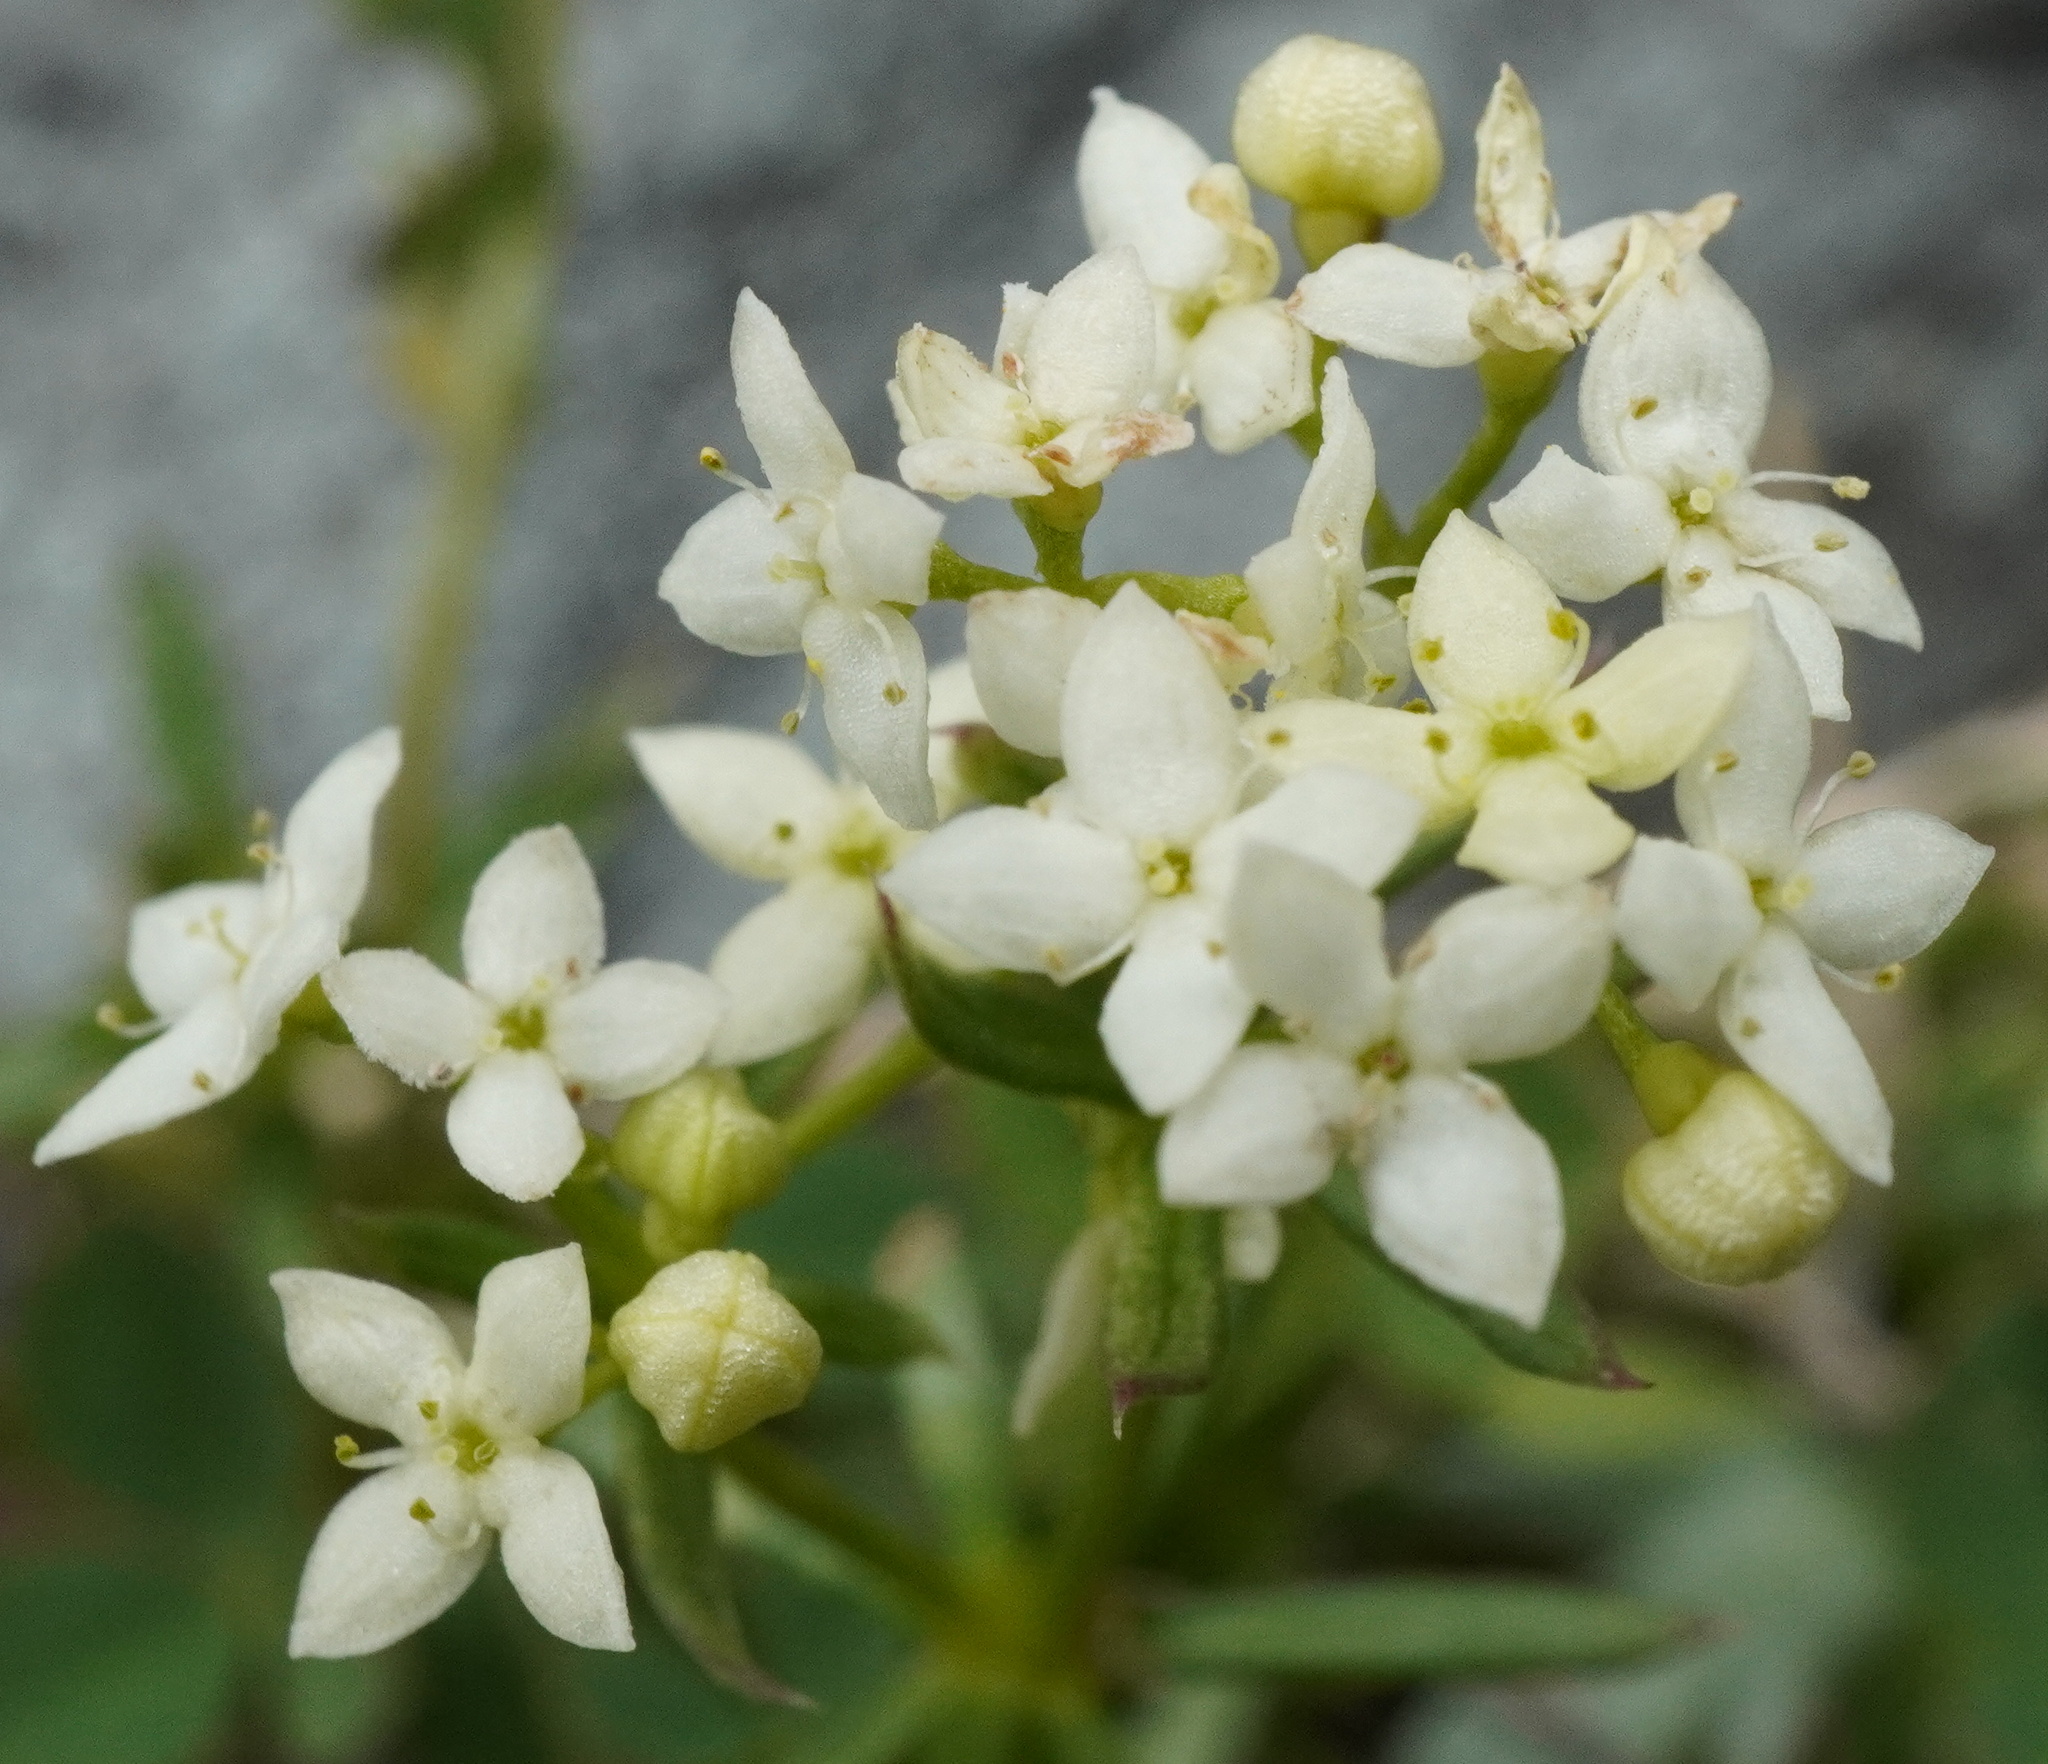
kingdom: Plantae
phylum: Tracheophyta
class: Magnoliopsida
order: Gentianales
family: Rubiaceae
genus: Galium
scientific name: Galium anisophyllon
